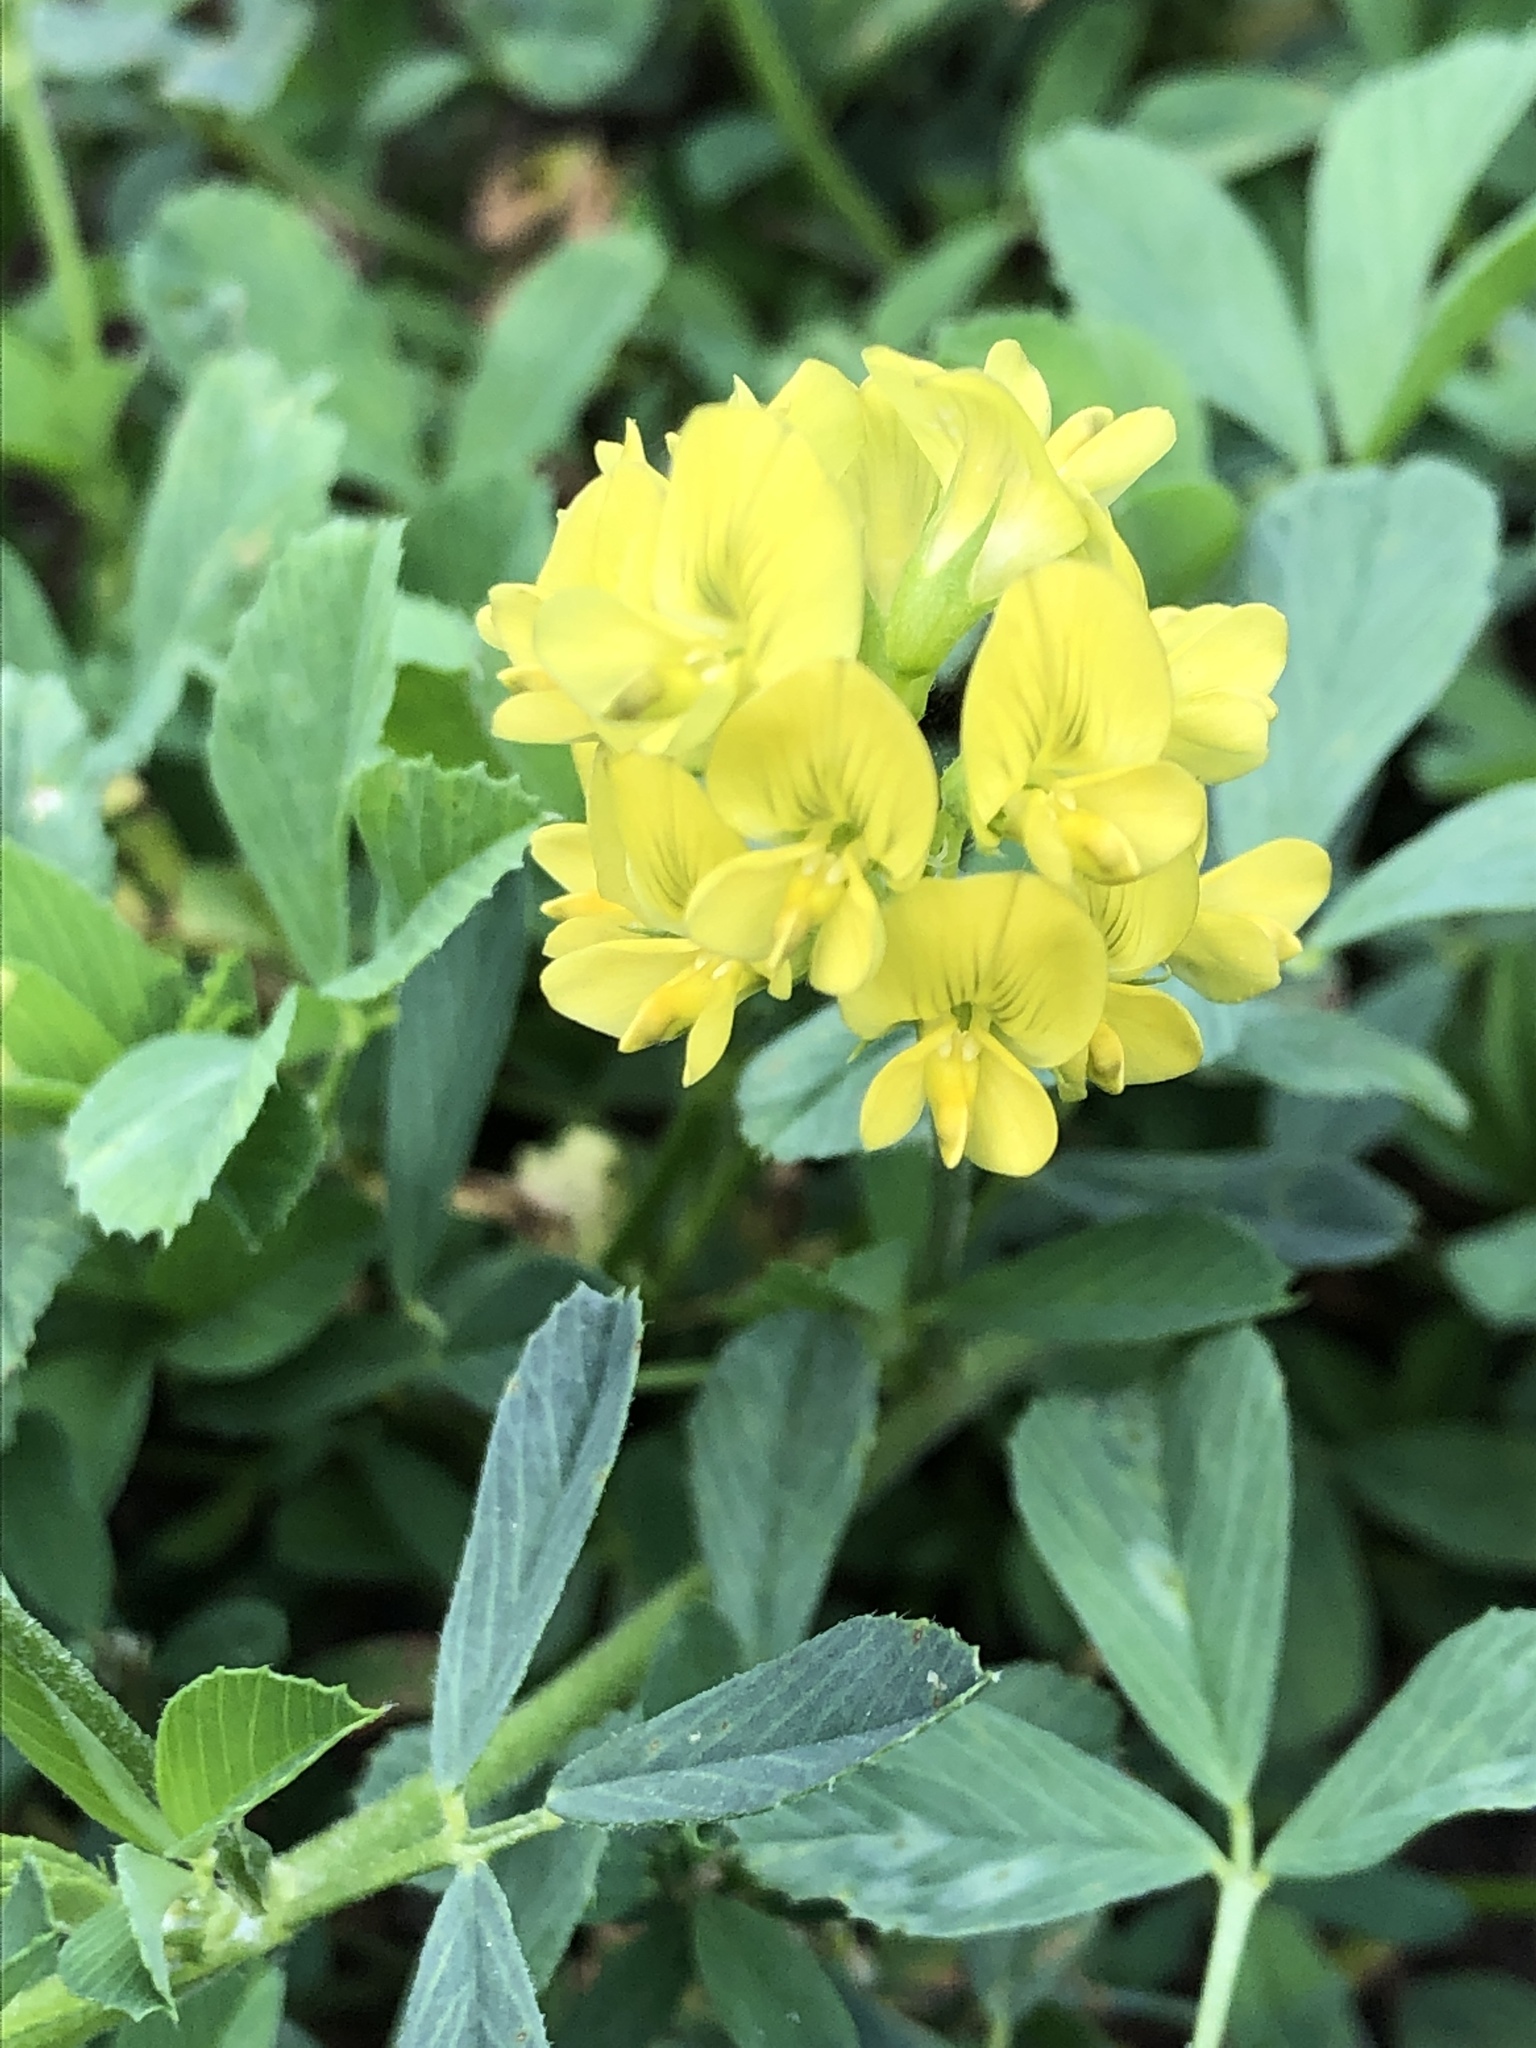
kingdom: Plantae
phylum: Tracheophyta
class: Magnoliopsida
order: Fabales
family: Fabaceae
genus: Medicago
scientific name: Medicago varia
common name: Sand lucerne
